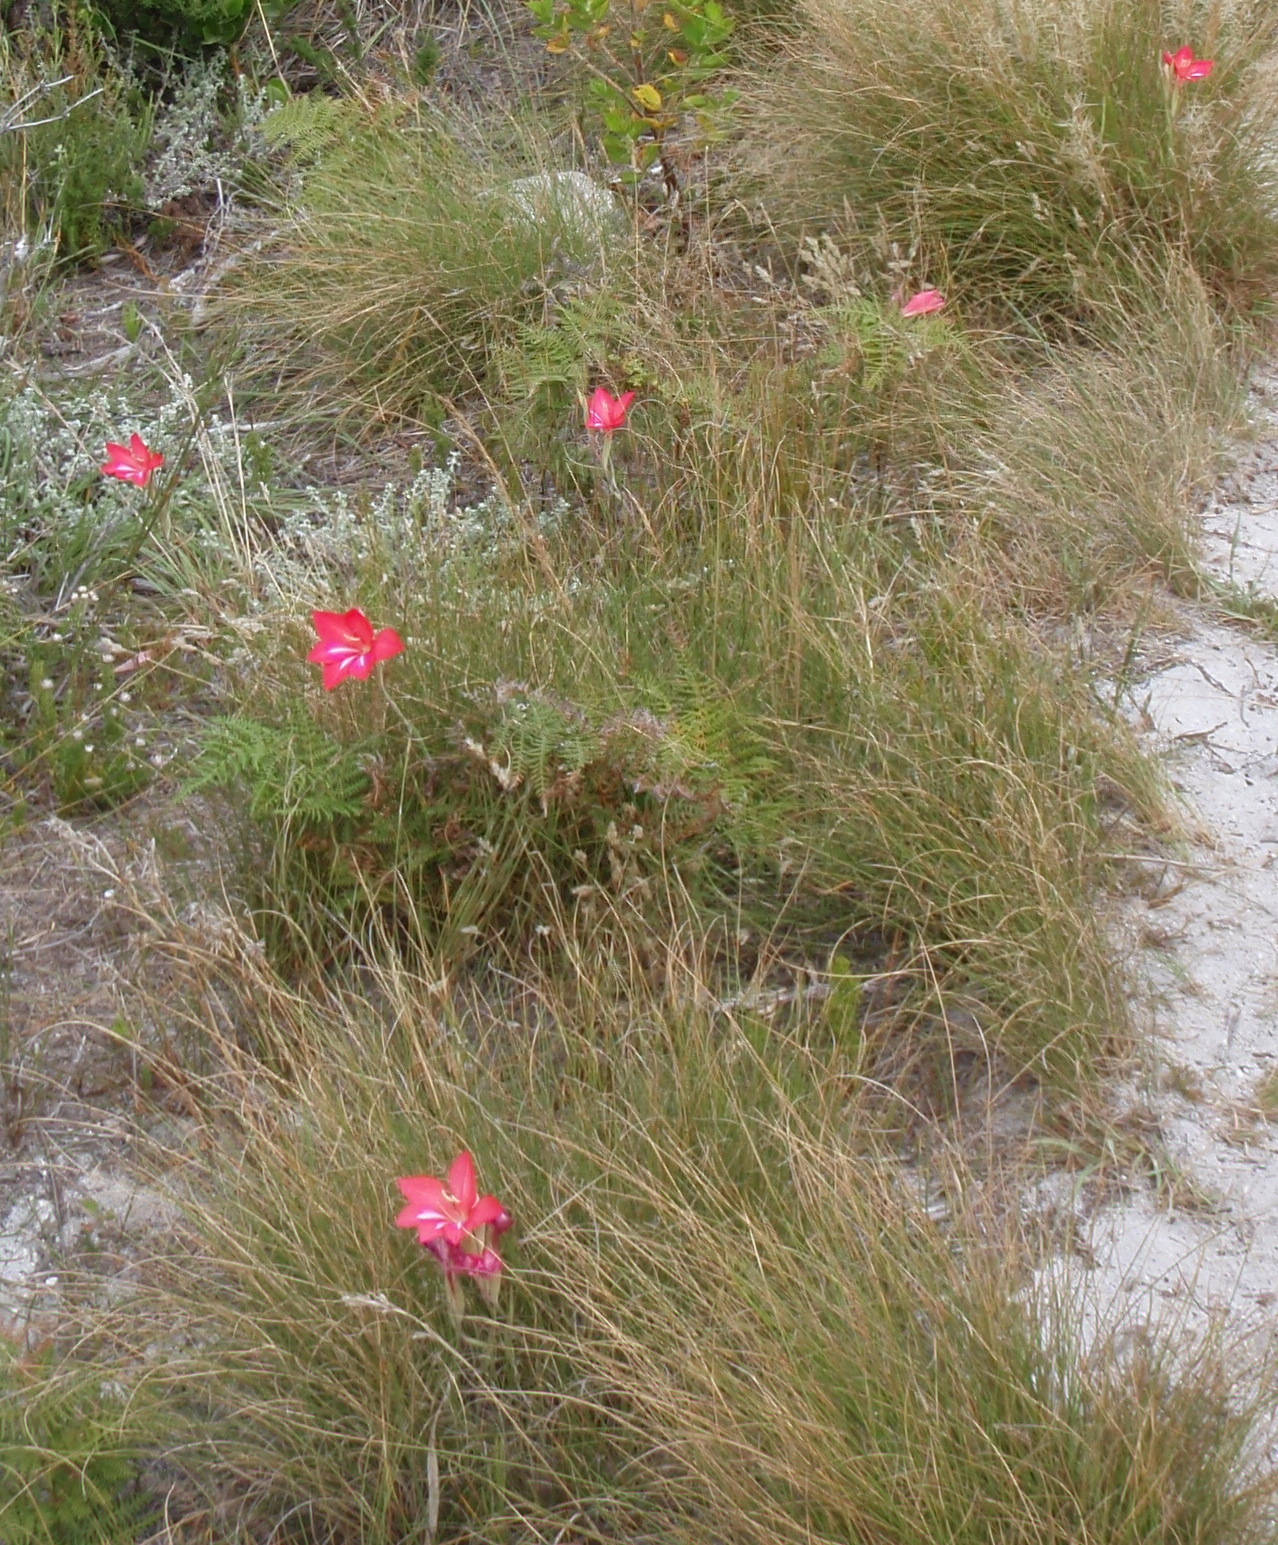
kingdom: Plantae
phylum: Tracheophyta
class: Liliopsida
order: Asparagales
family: Iridaceae
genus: Gladiolus
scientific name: Gladiolus carmineus
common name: Hermanus gladiolus
